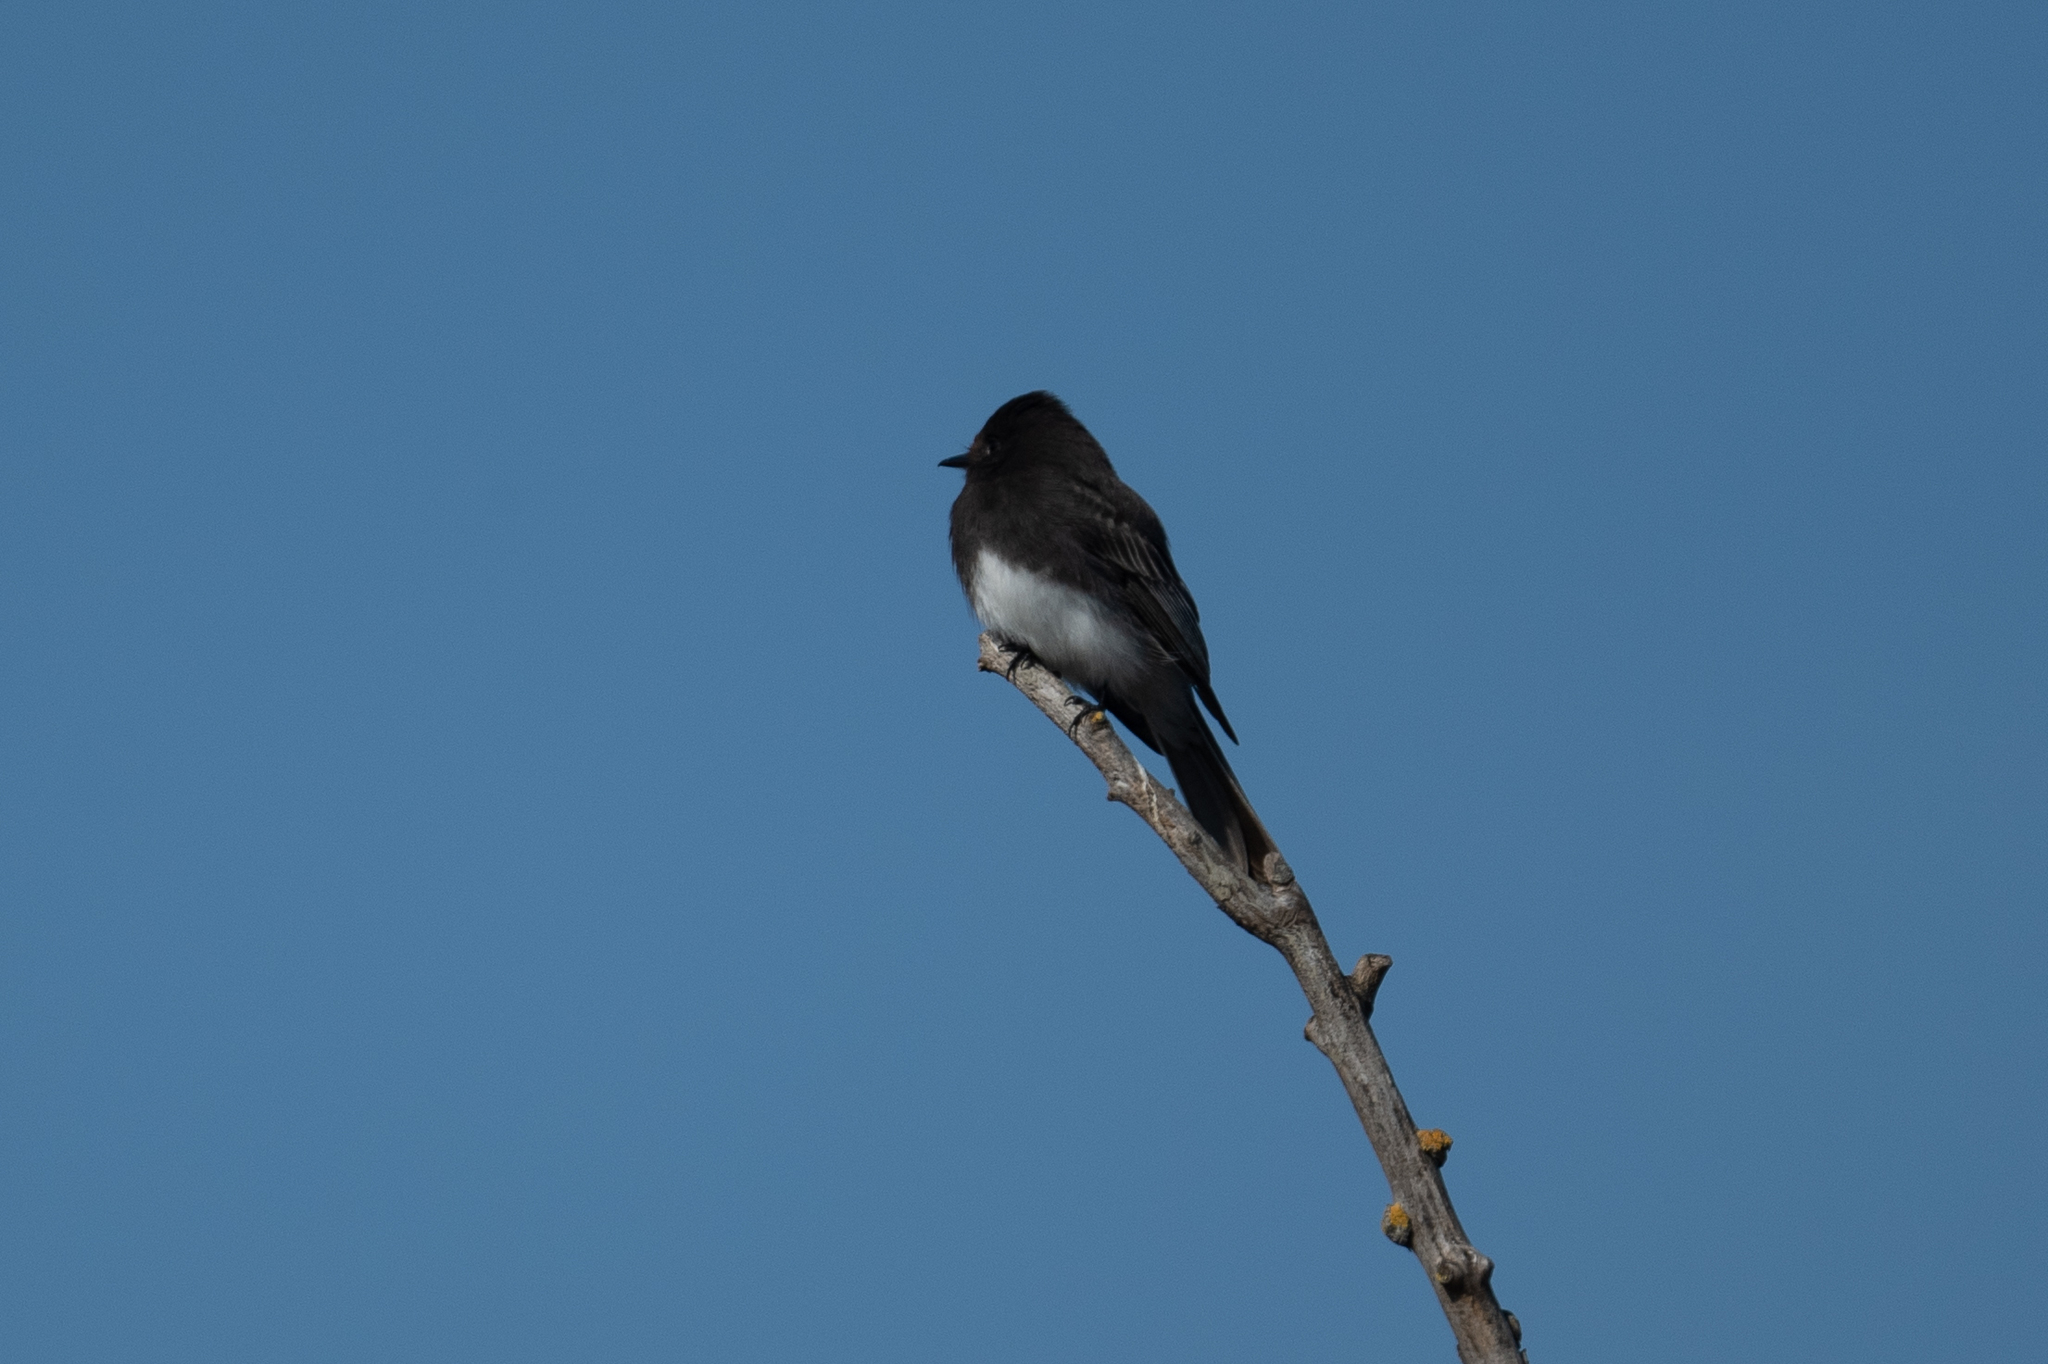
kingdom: Animalia
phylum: Chordata
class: Aves
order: Passeriformes
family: Tyrannidae
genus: Sayornis
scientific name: Sayornis nigricans
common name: Black phoebe
